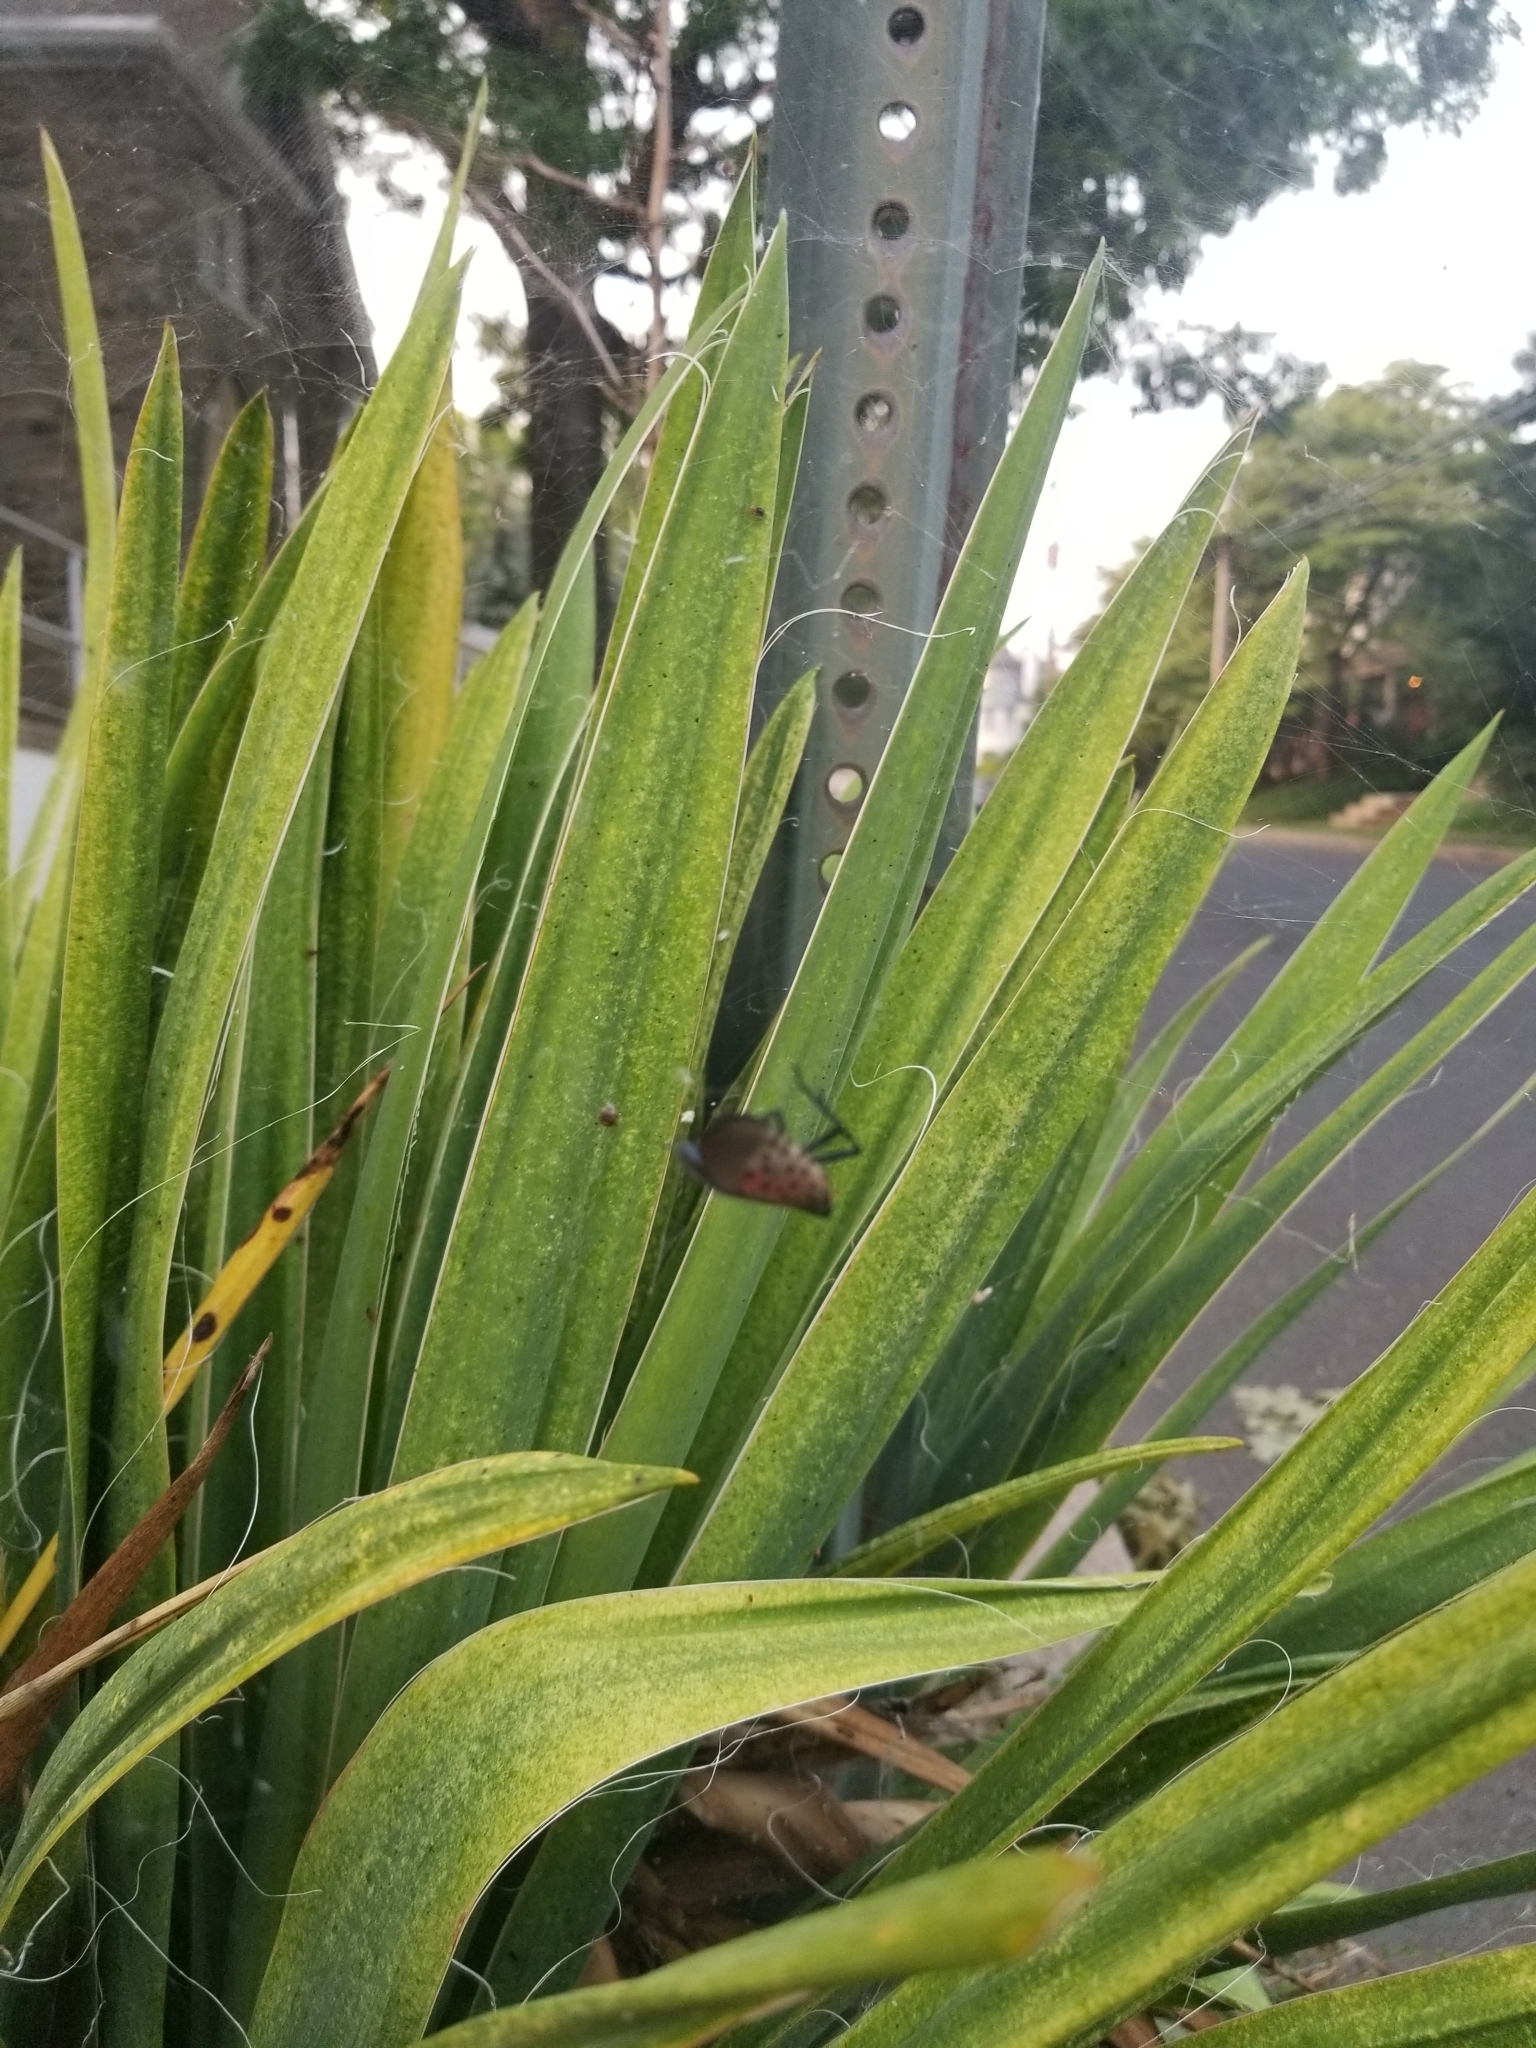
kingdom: Animalia
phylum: Arthropoda
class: Insecta
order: Hemiptera
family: Fulgoridae
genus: Lycorma
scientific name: Lycorma delicatula
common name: Spotted lanternfly
